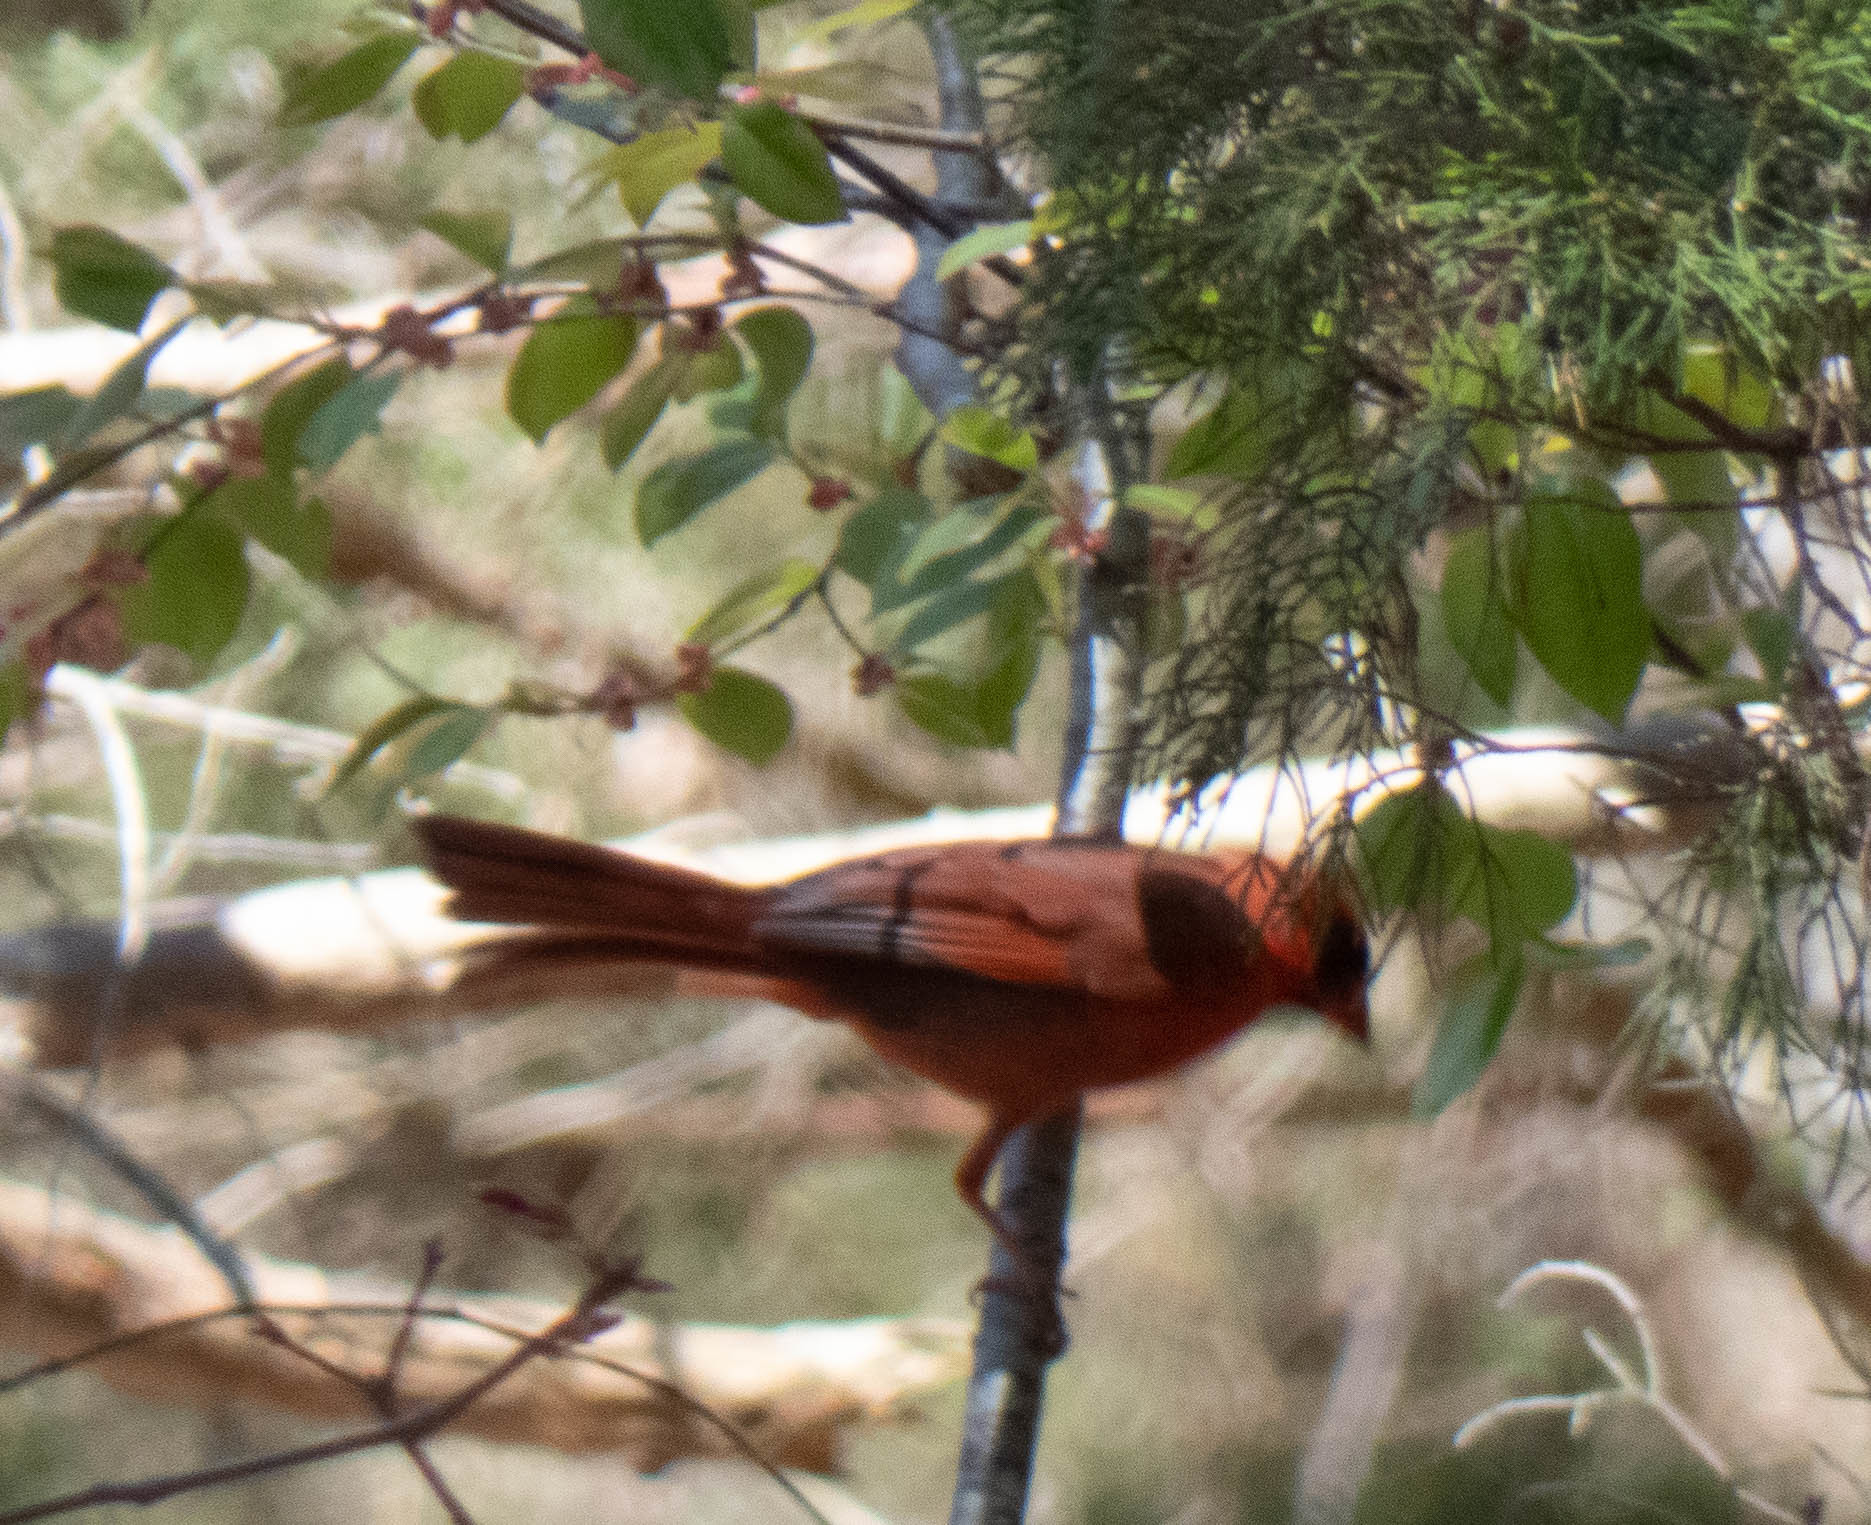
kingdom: Animalia
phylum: Chordata
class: Aves
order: Passeriformes
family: Cardinalidae
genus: Cardinalis
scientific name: Cardinalis cardinalis
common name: Northern cardinal
